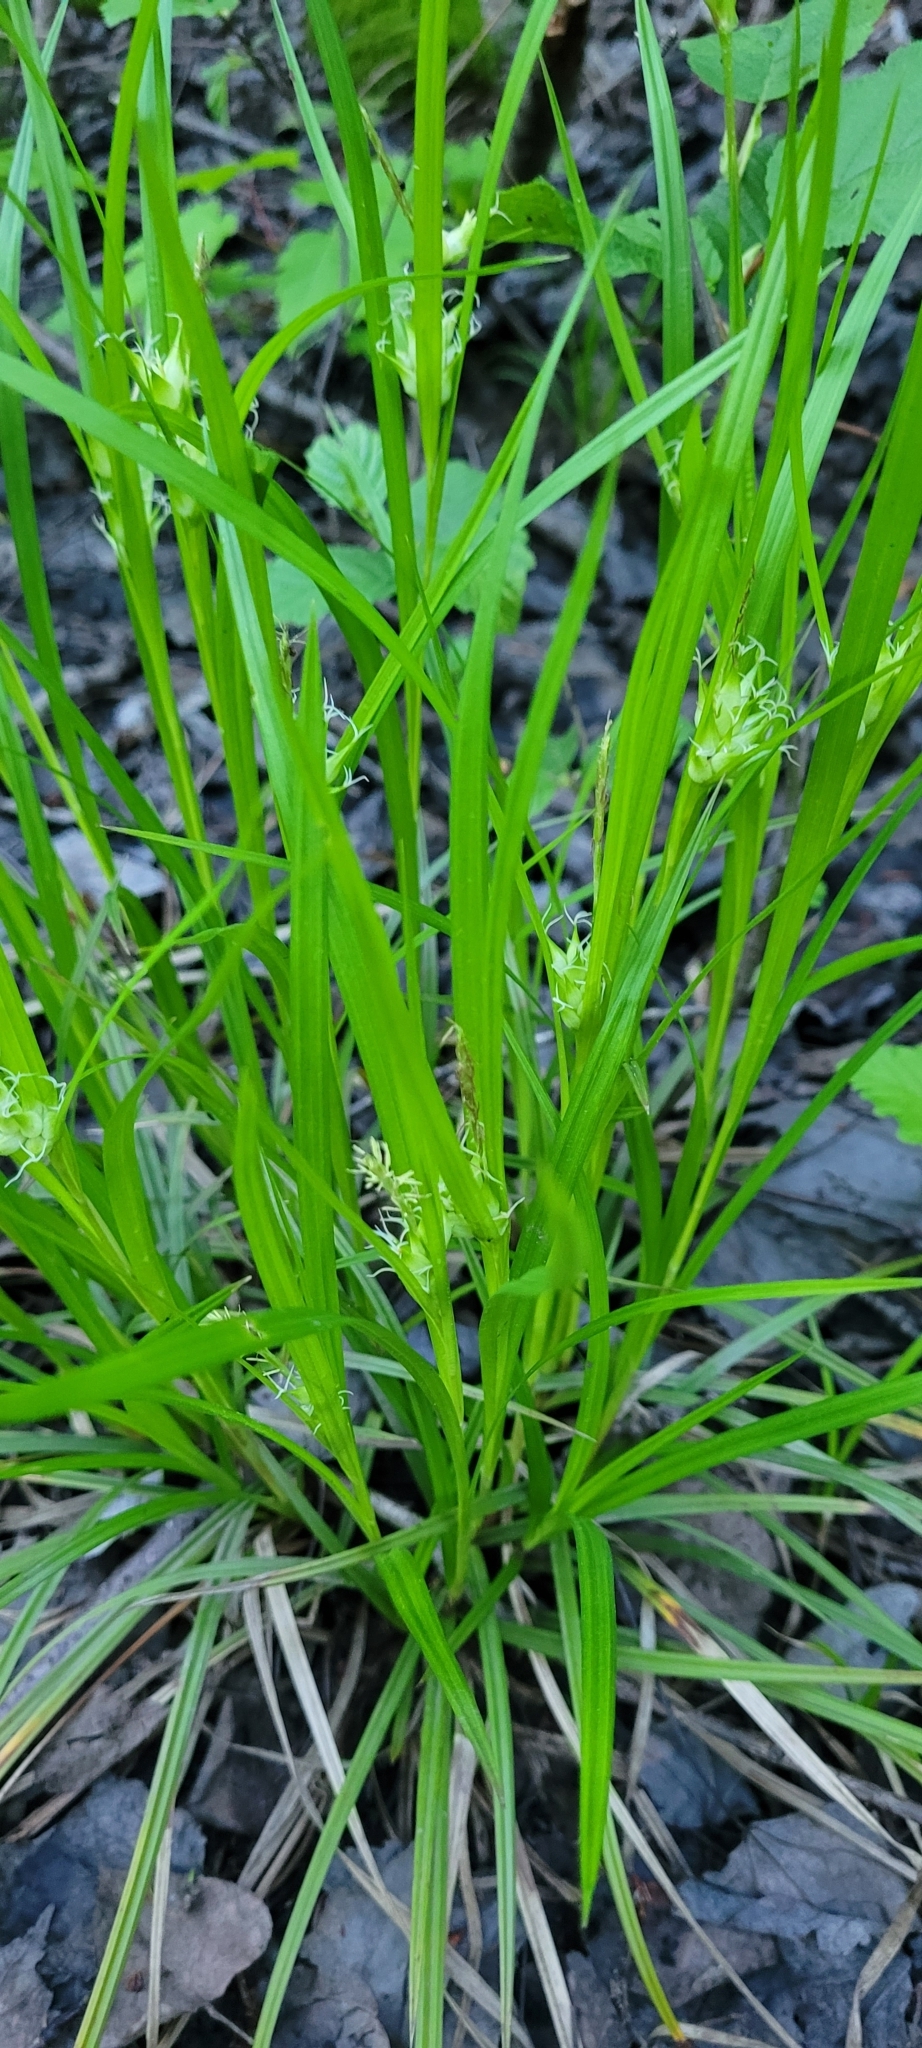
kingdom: Plantae
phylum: Tracheophyta
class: Liliopsida
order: Poales
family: Cyperaceae
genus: Carex
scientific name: Carex intumescens
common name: Greater bladder sedge
